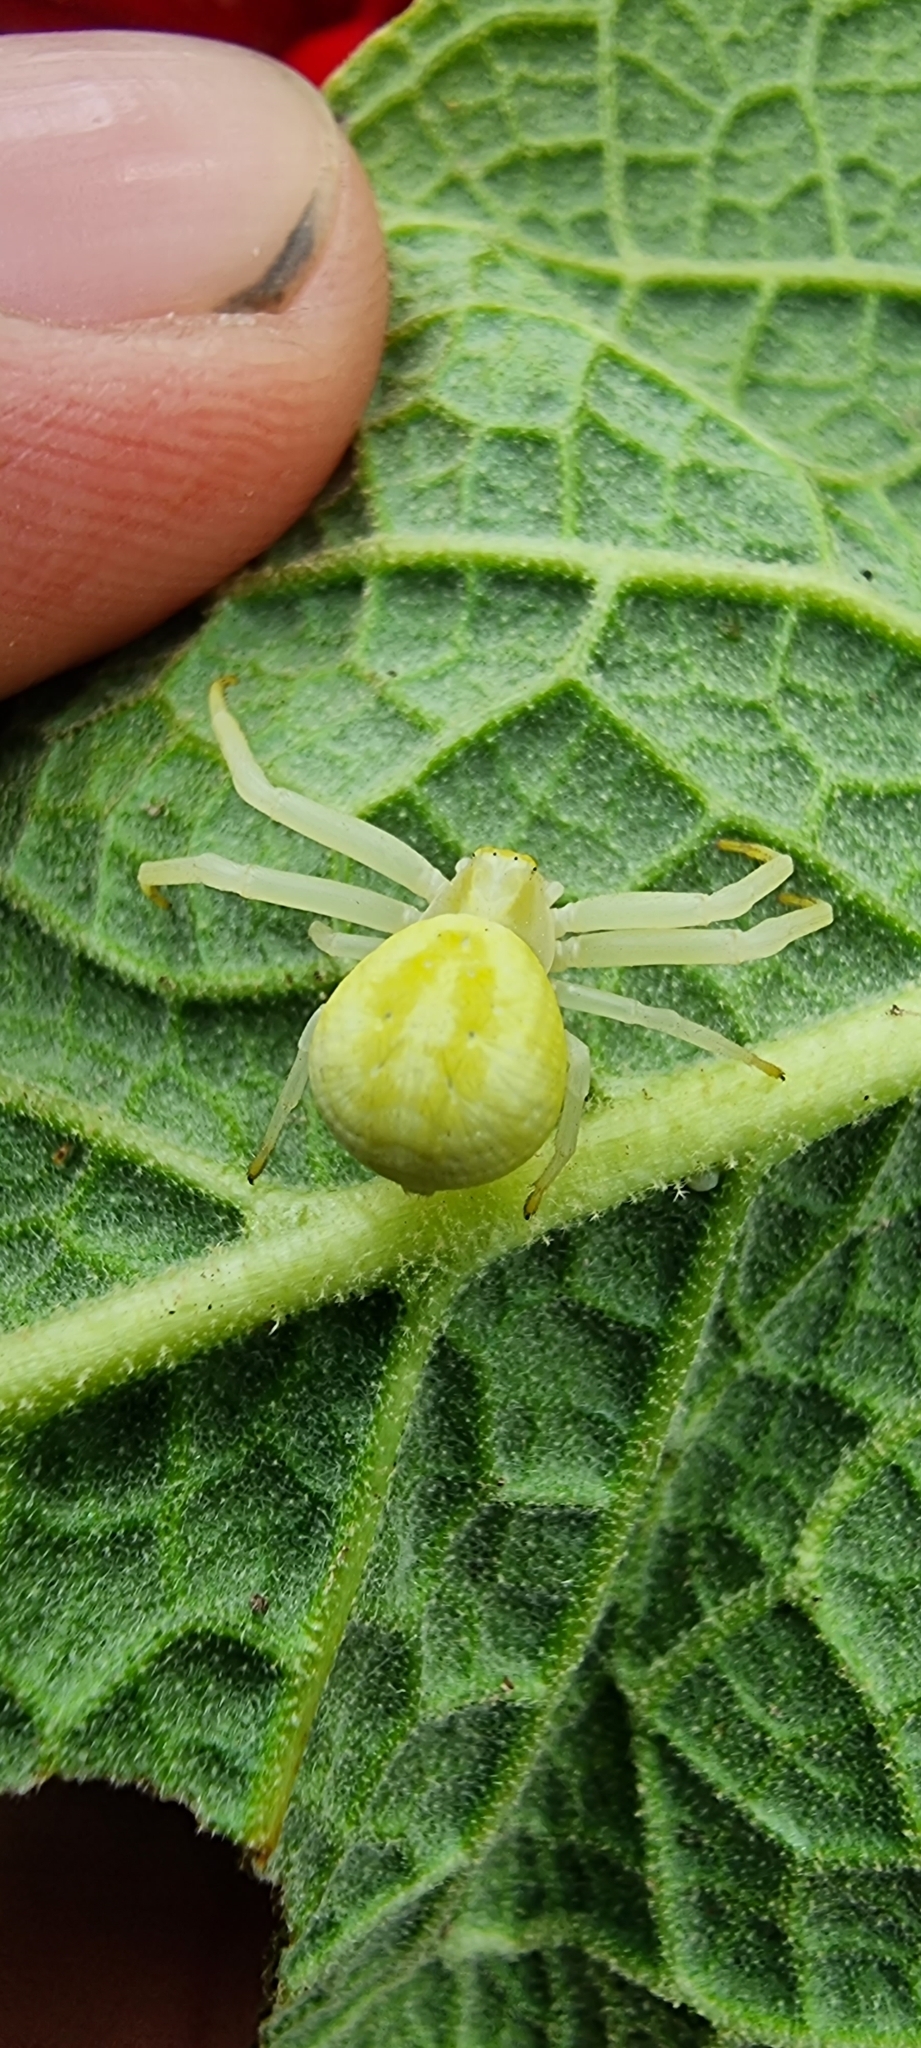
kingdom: Animalia
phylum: Arthropoda
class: Arachnida
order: Araneae
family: Thomisidae
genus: Misumena
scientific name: Misumena vatia
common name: Goldenrod crab spider
